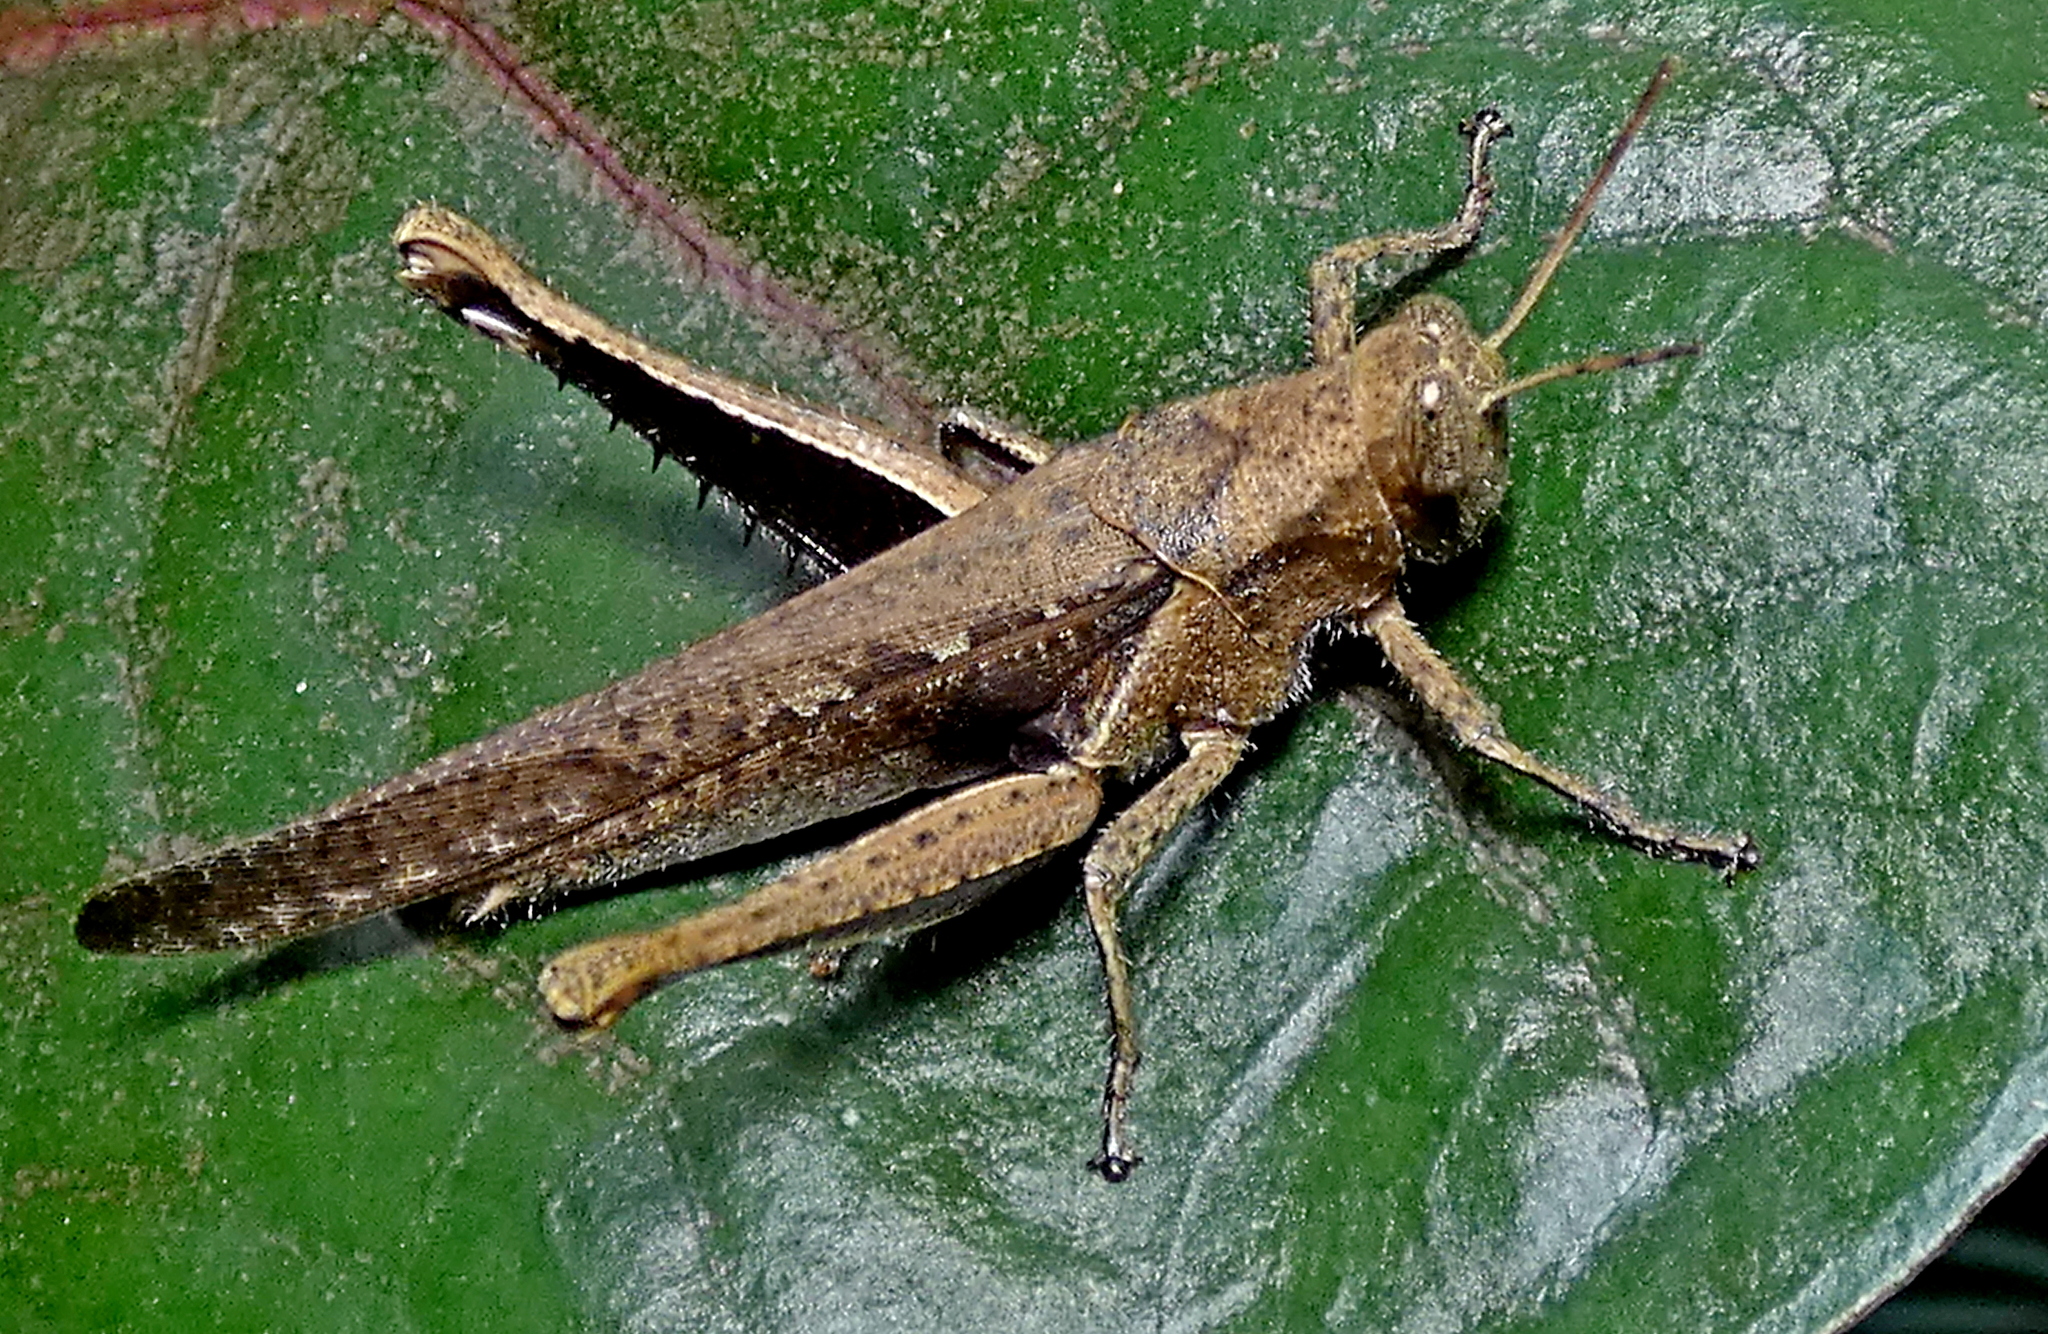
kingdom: Animalia
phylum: Arthropoda
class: Insecta
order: Orthoptera
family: Acrididae
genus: Abracris
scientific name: Abracris flavolineata
